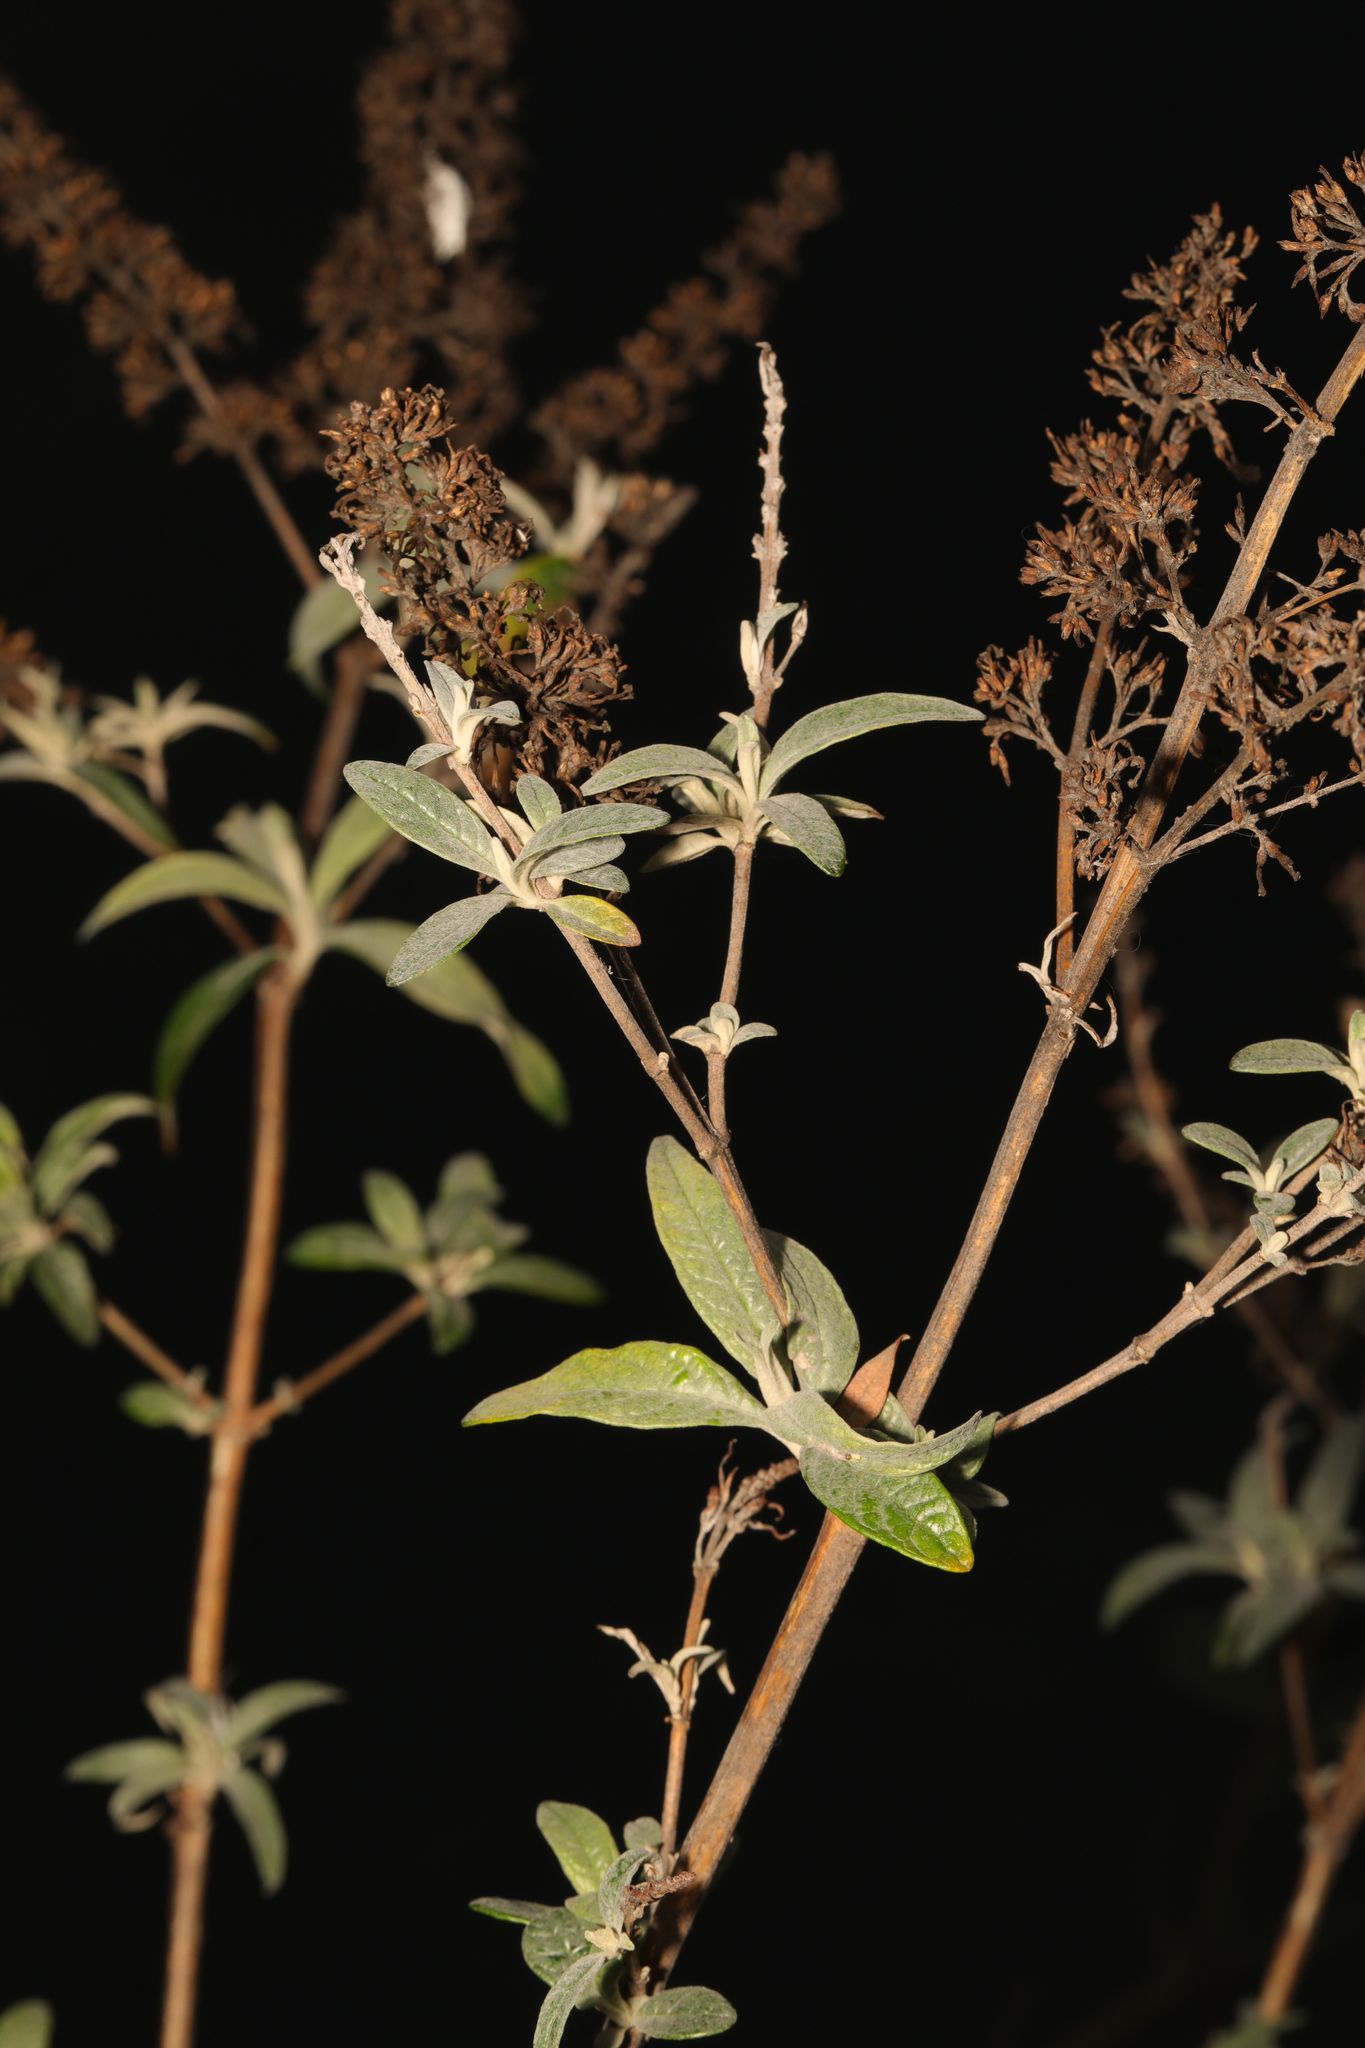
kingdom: Plantae
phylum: Tracheophyta
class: Magnoliopsida
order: Lamiales
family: Scrophulariaceae
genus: Buddleja
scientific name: Buddleja davidii
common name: Butterfly-bush
